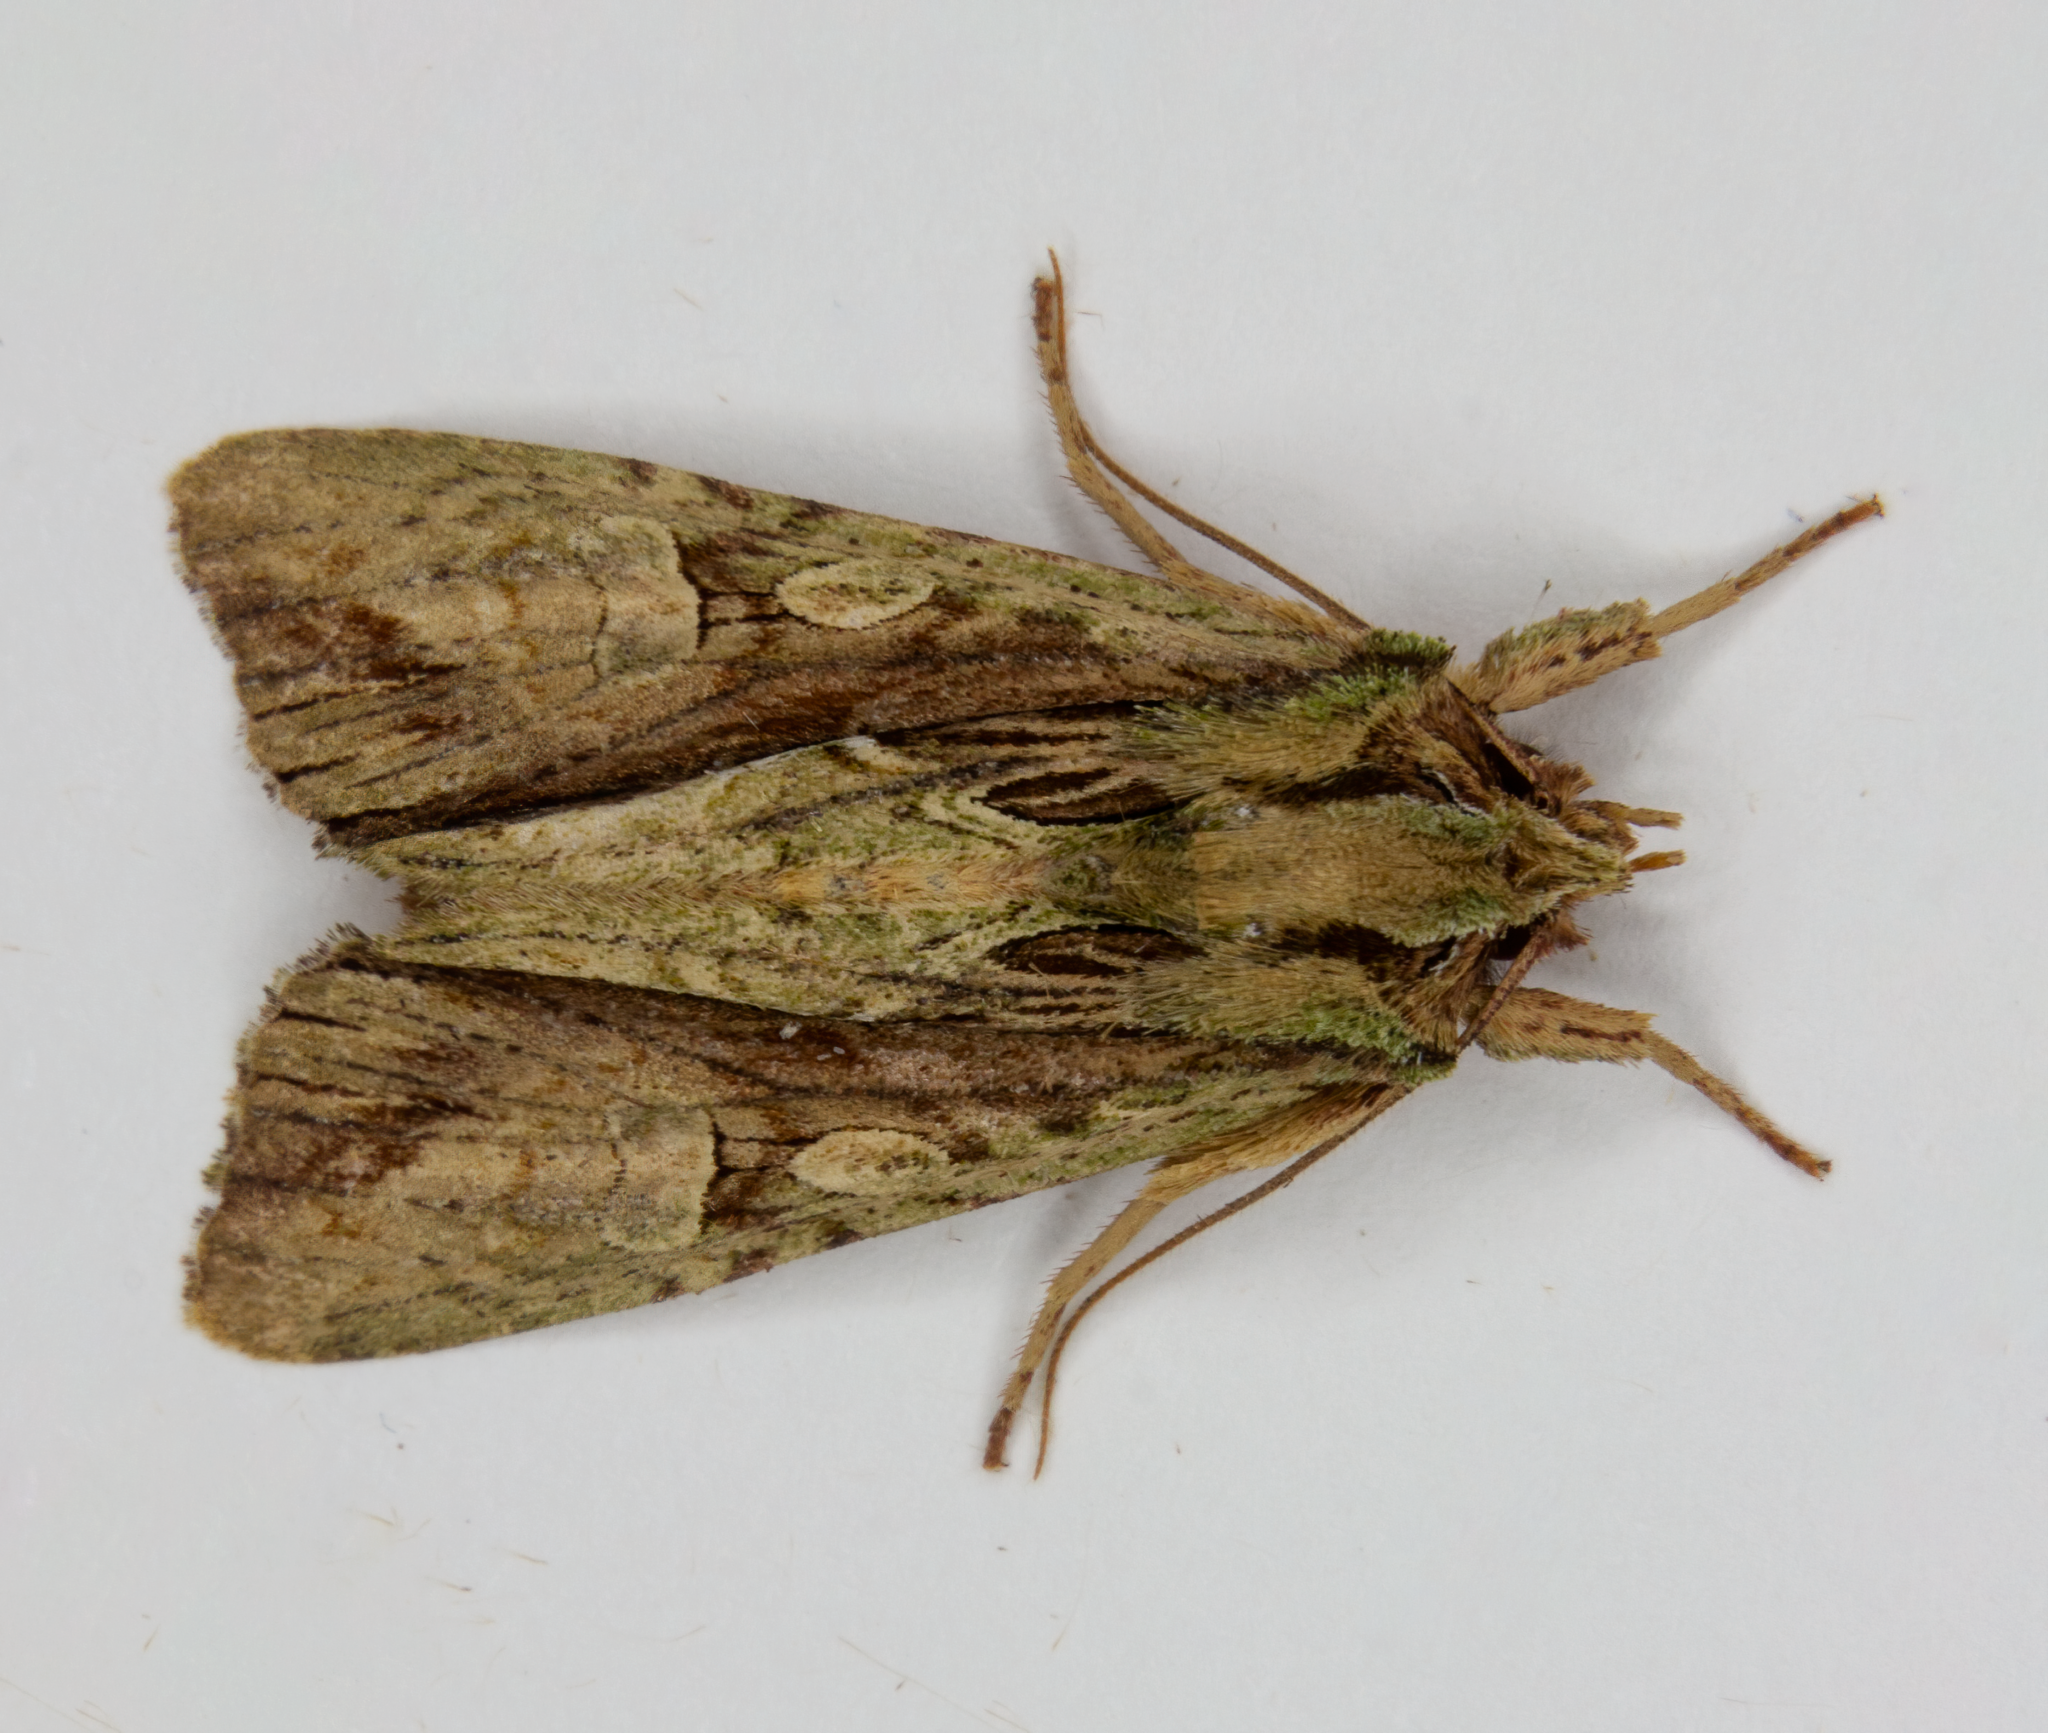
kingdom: Animalia
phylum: Arthropoda
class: Insecta
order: Lepidoptera
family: Noctuidae
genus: Meterana
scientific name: Meterana decorata
